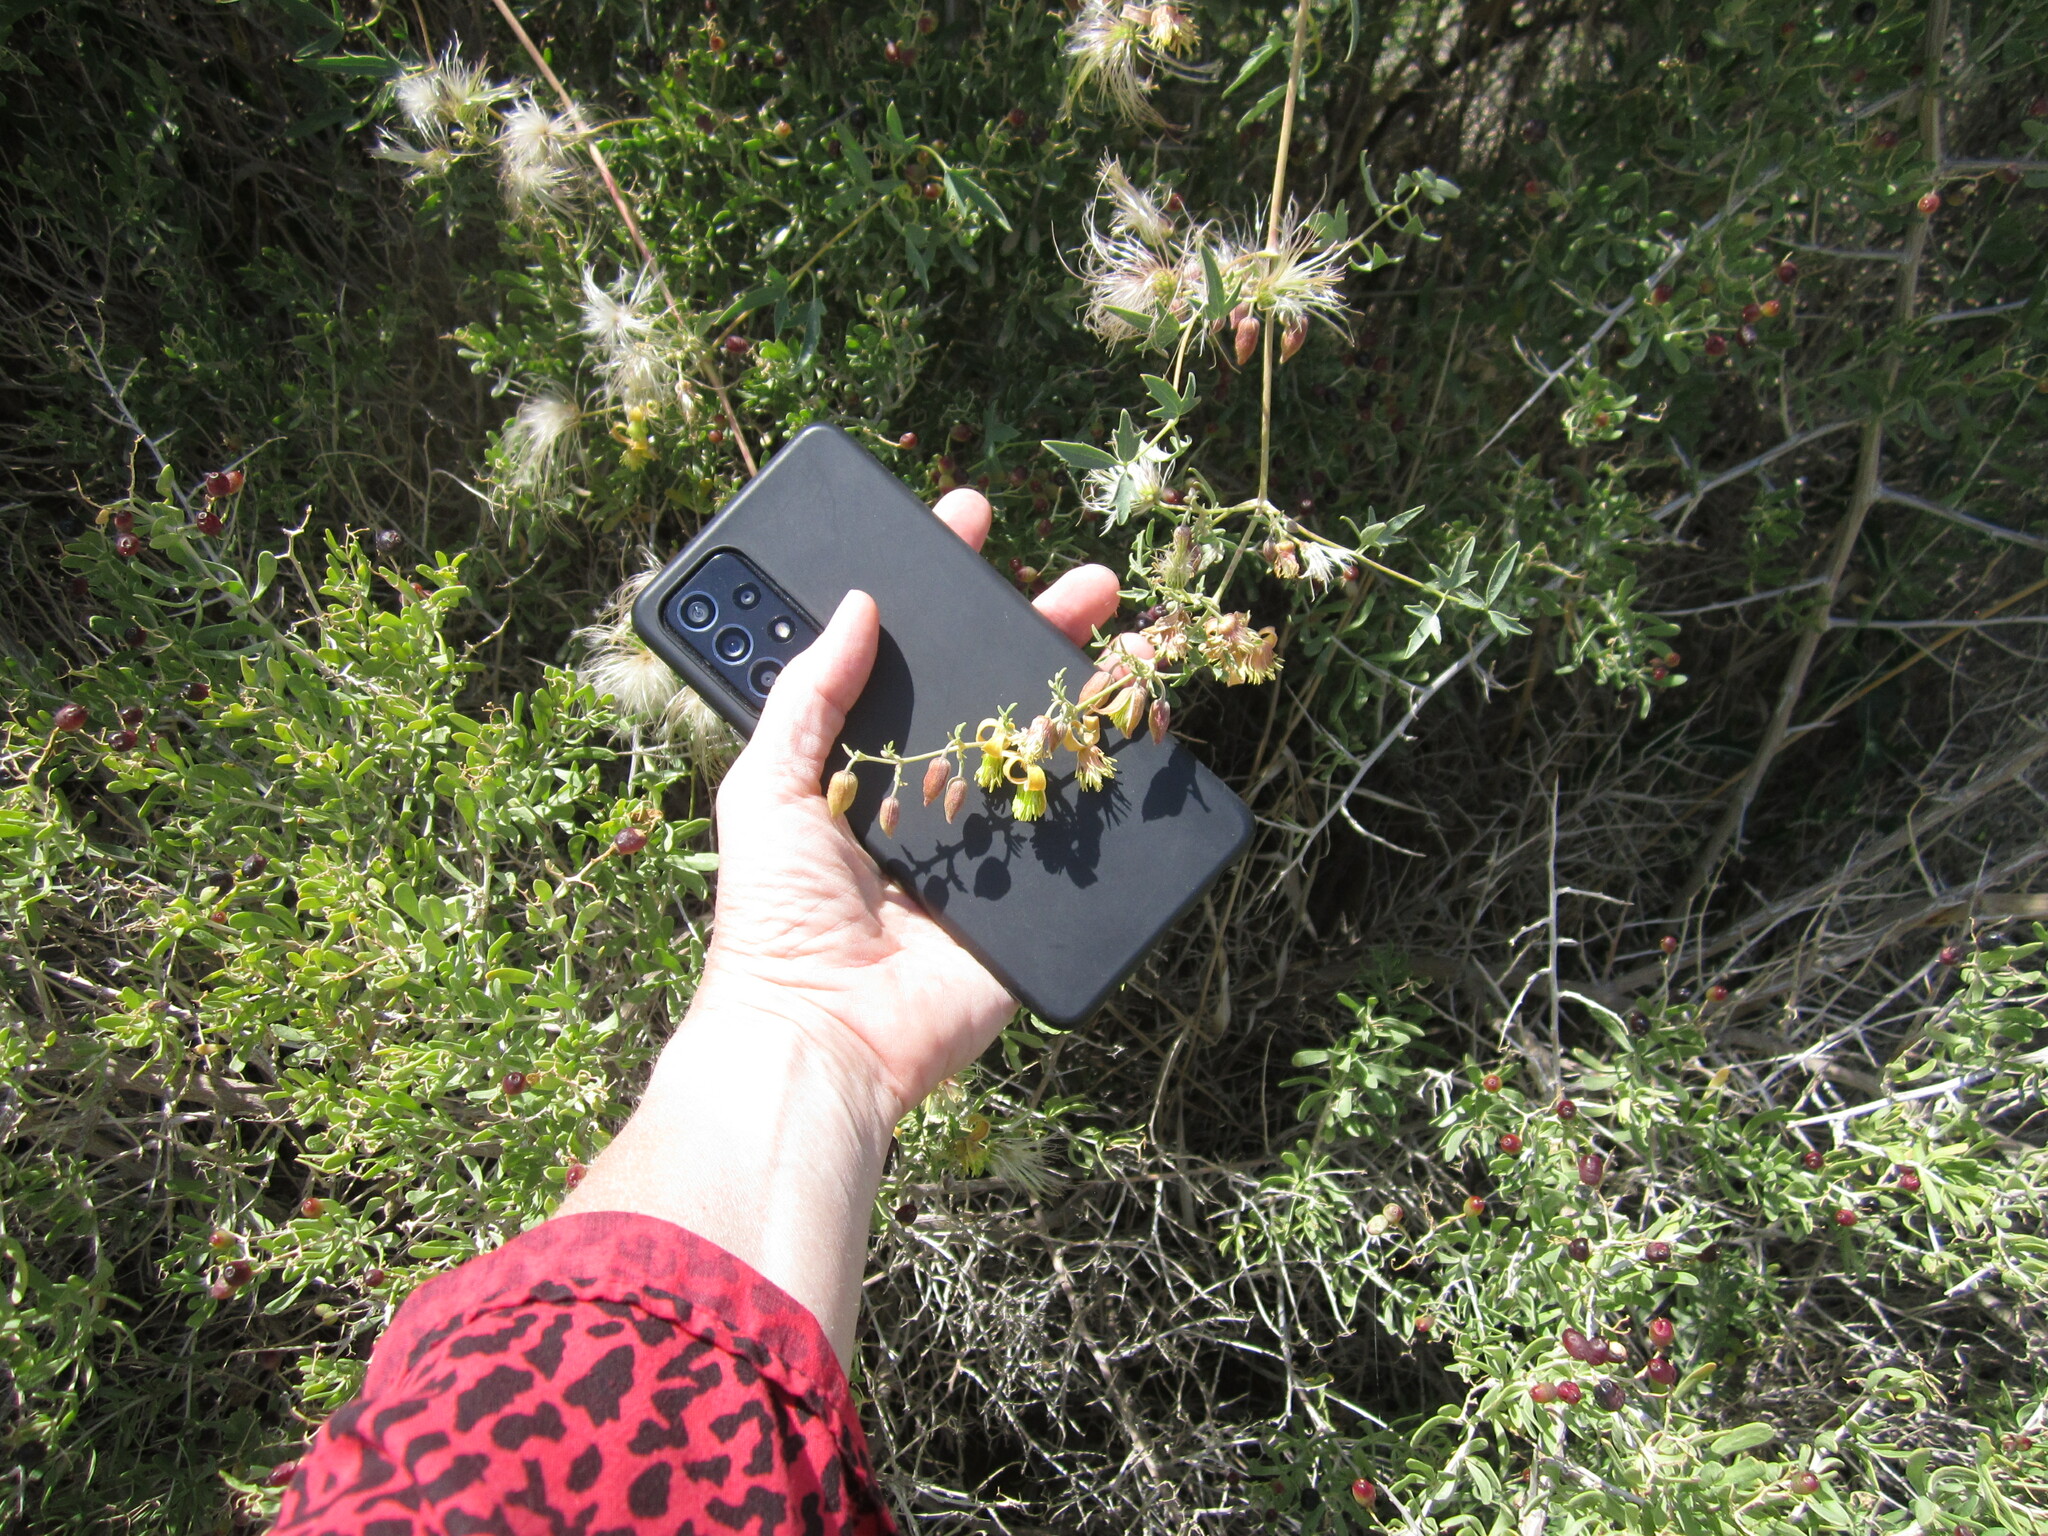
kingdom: Plantae
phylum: Tracheophyta
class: Magnoliopsida
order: Ranunculales
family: Ranunculaceae
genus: Clematis
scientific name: Clematis orientalis
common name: Oriental virgin's-bower
